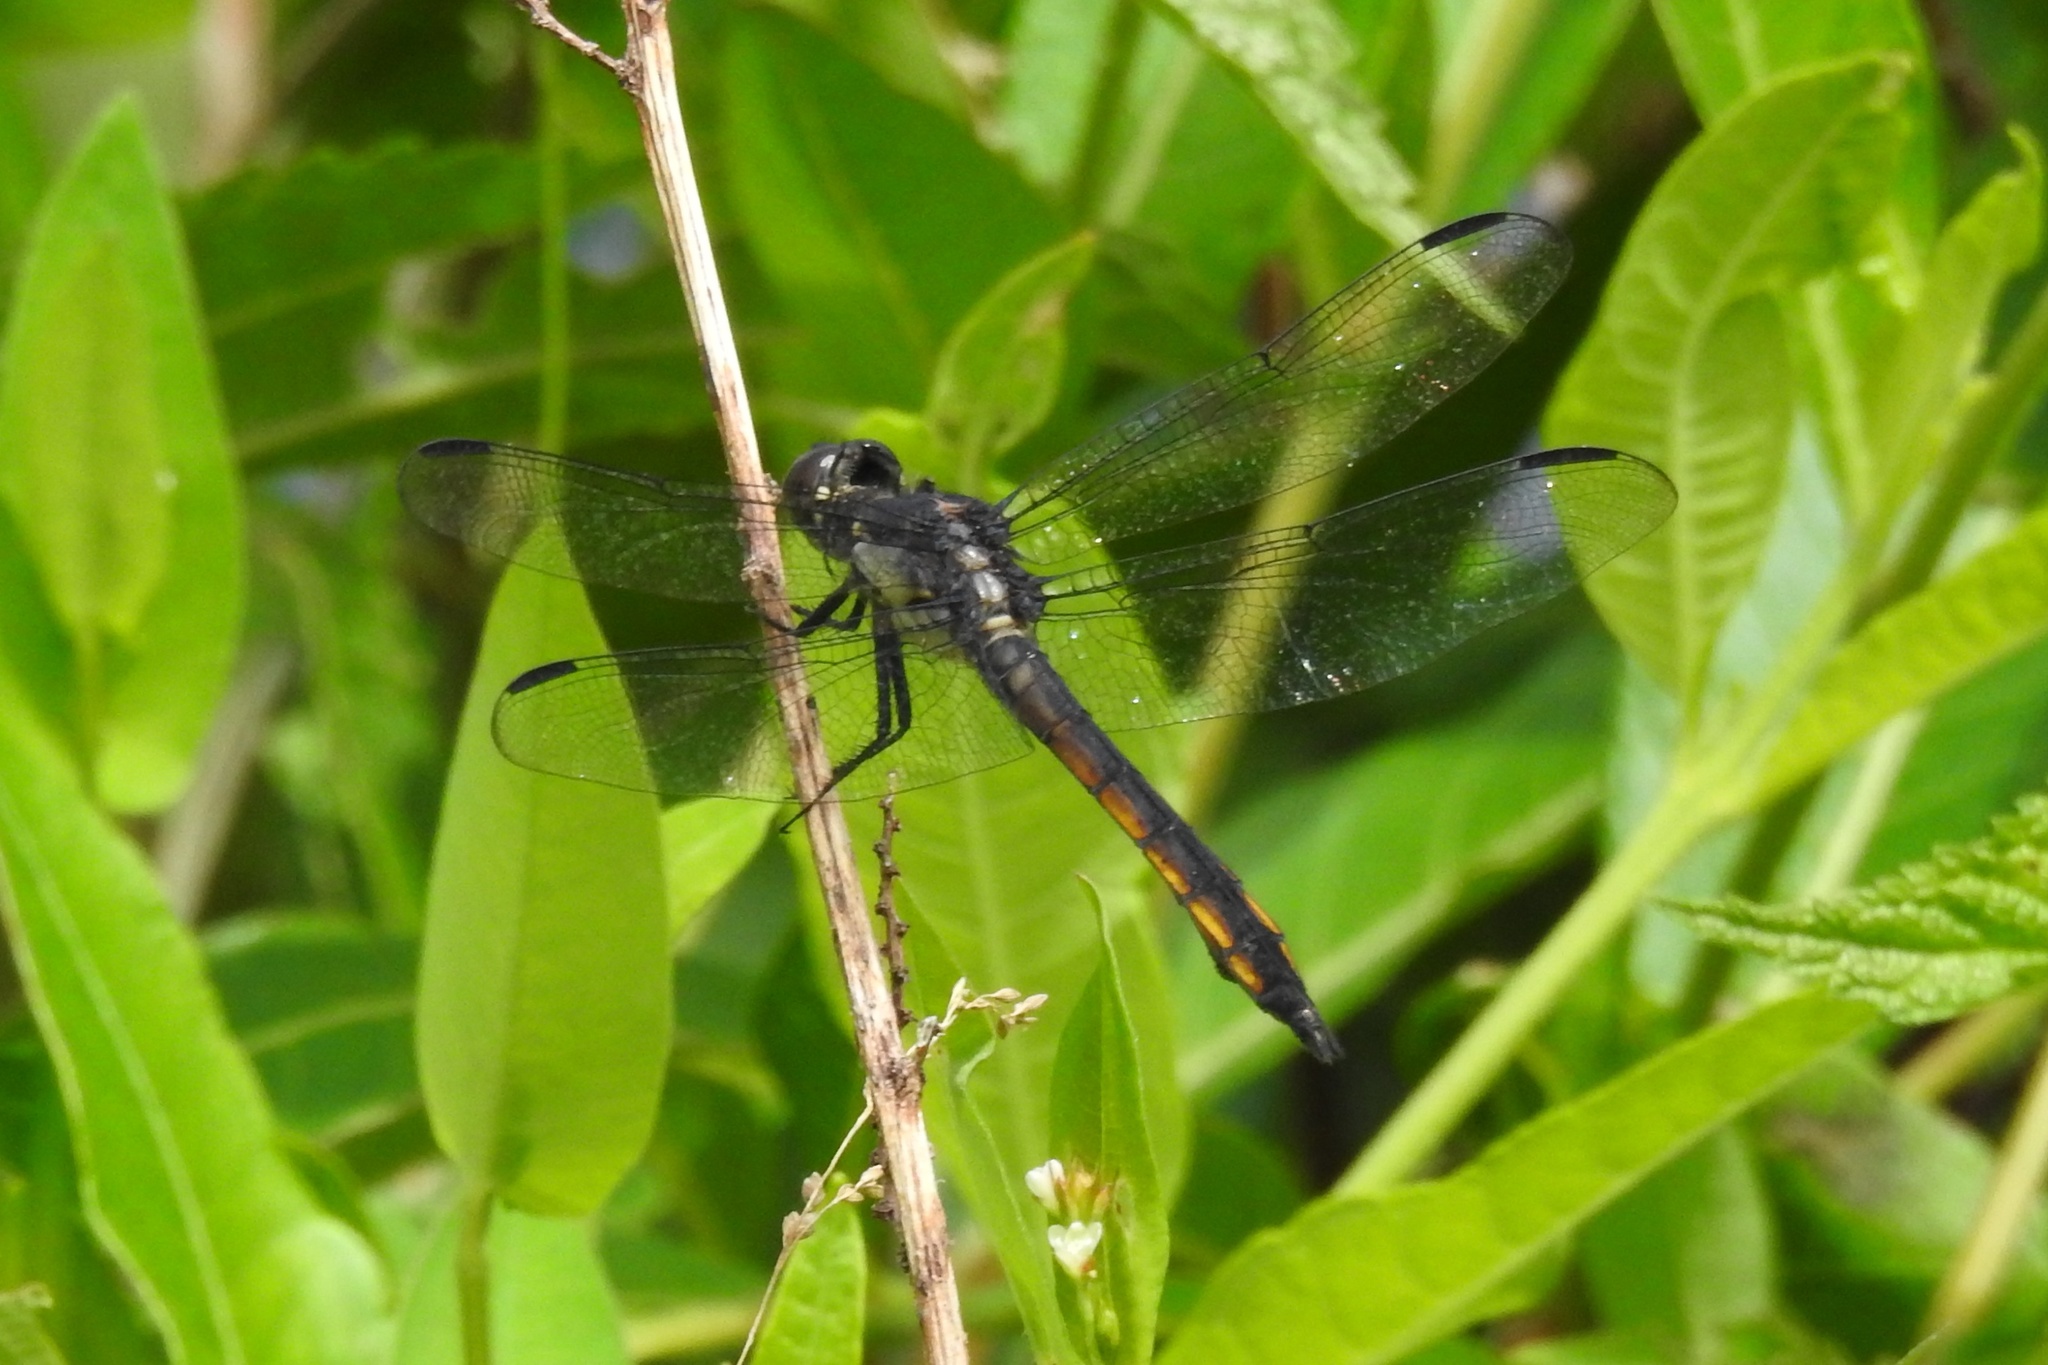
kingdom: Animalia
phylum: Arthropoda
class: Insecta
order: Odonata
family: Libellulidae
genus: Libellula
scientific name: Libellula incesta
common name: Slaty skimmer
